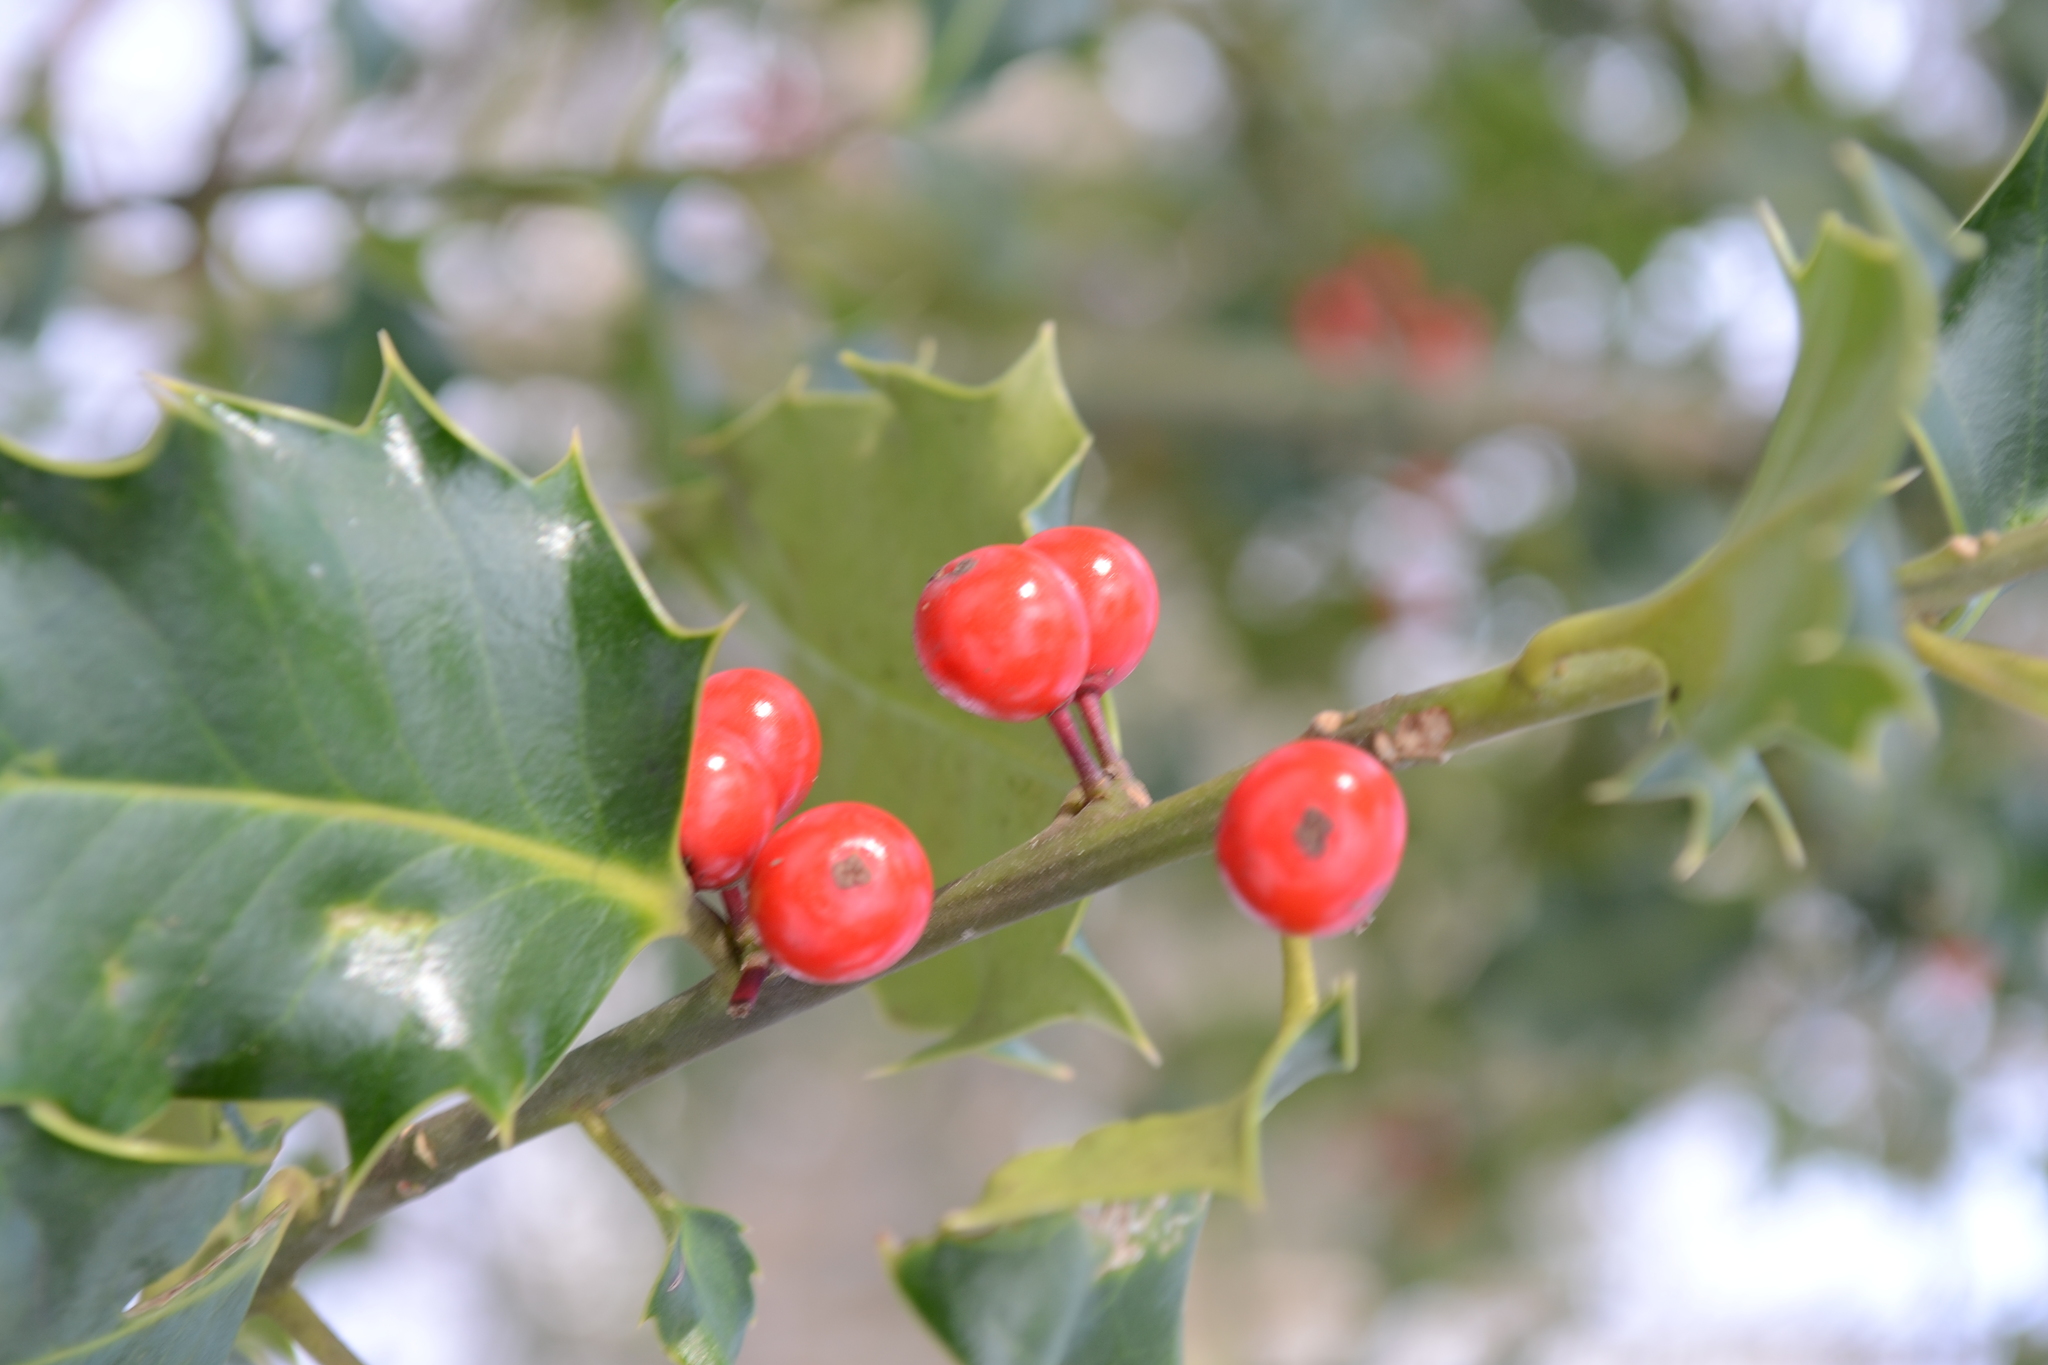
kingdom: Plantae
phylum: Tracheophyta
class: Magnoliopsida
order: Aquifoliales
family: Aquifoliaceae
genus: Ilex
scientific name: Ilex aquifolium
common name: English holly
